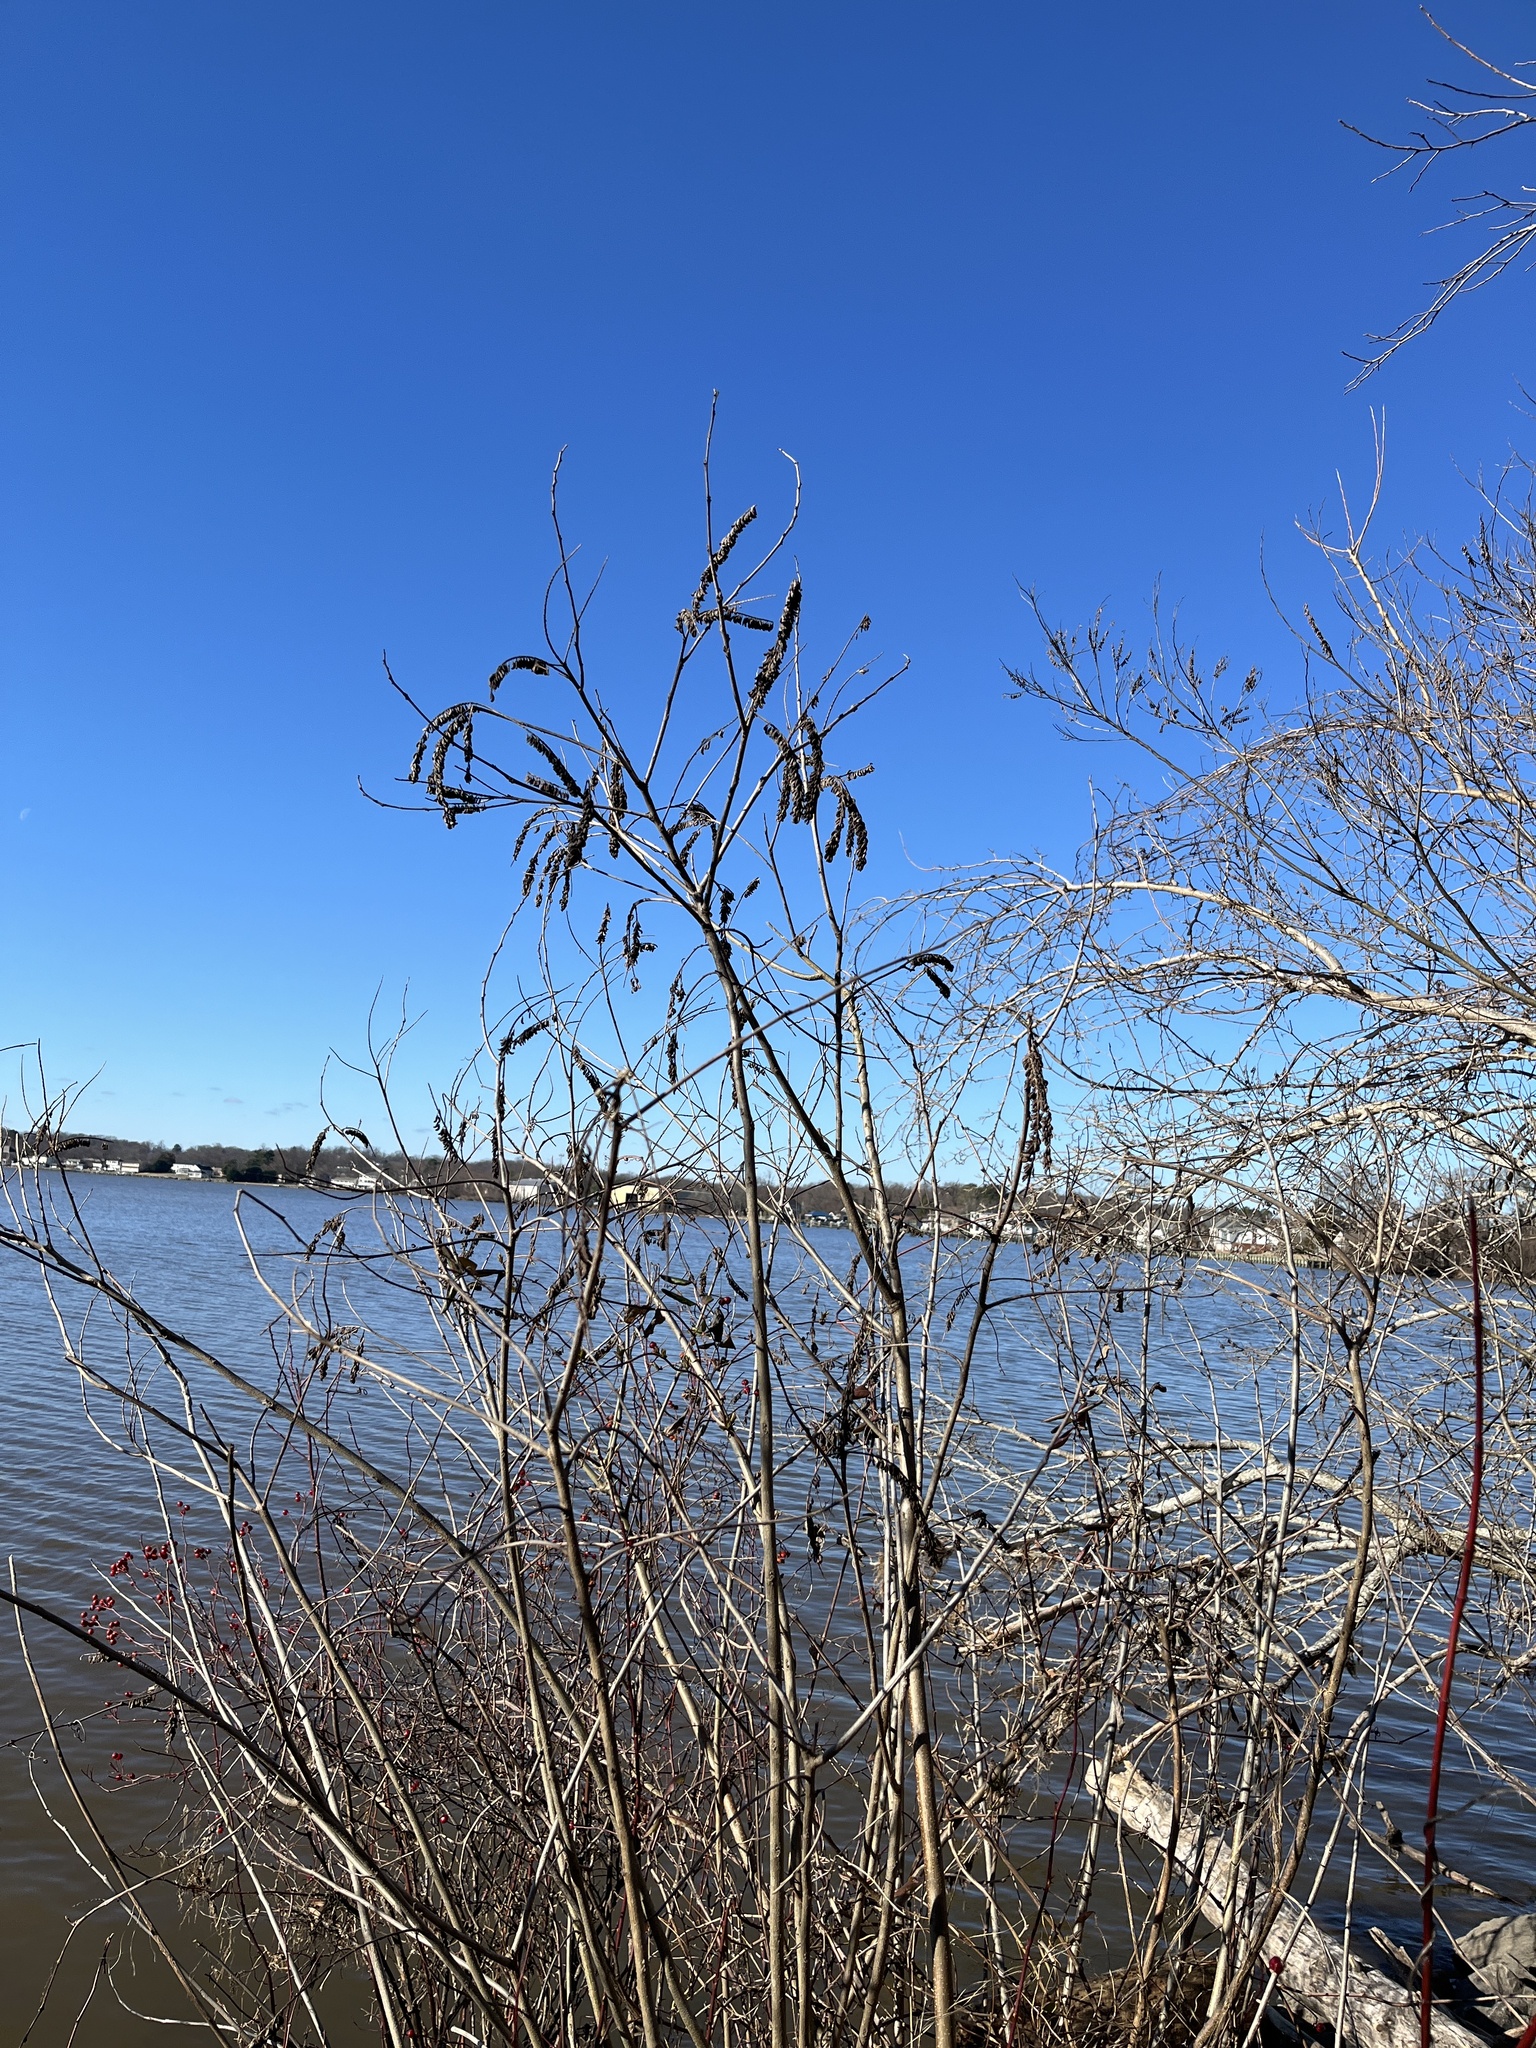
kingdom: Plantae
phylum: Tracheophyta
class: Magnoliopsida
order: Fabales
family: Fabaceae
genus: Amorpha
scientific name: Amorpha fruticosa
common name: False indigo
